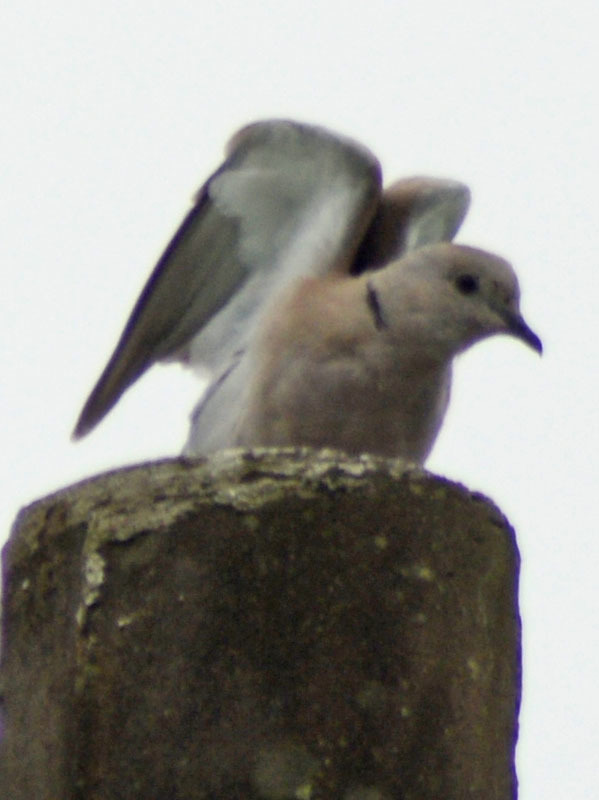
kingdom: Animalia
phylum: Chordata
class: Aves
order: Columbiformes
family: Columbidae
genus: Streptopelia
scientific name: Streptopelia decaocto
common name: Eurasian collared dove
